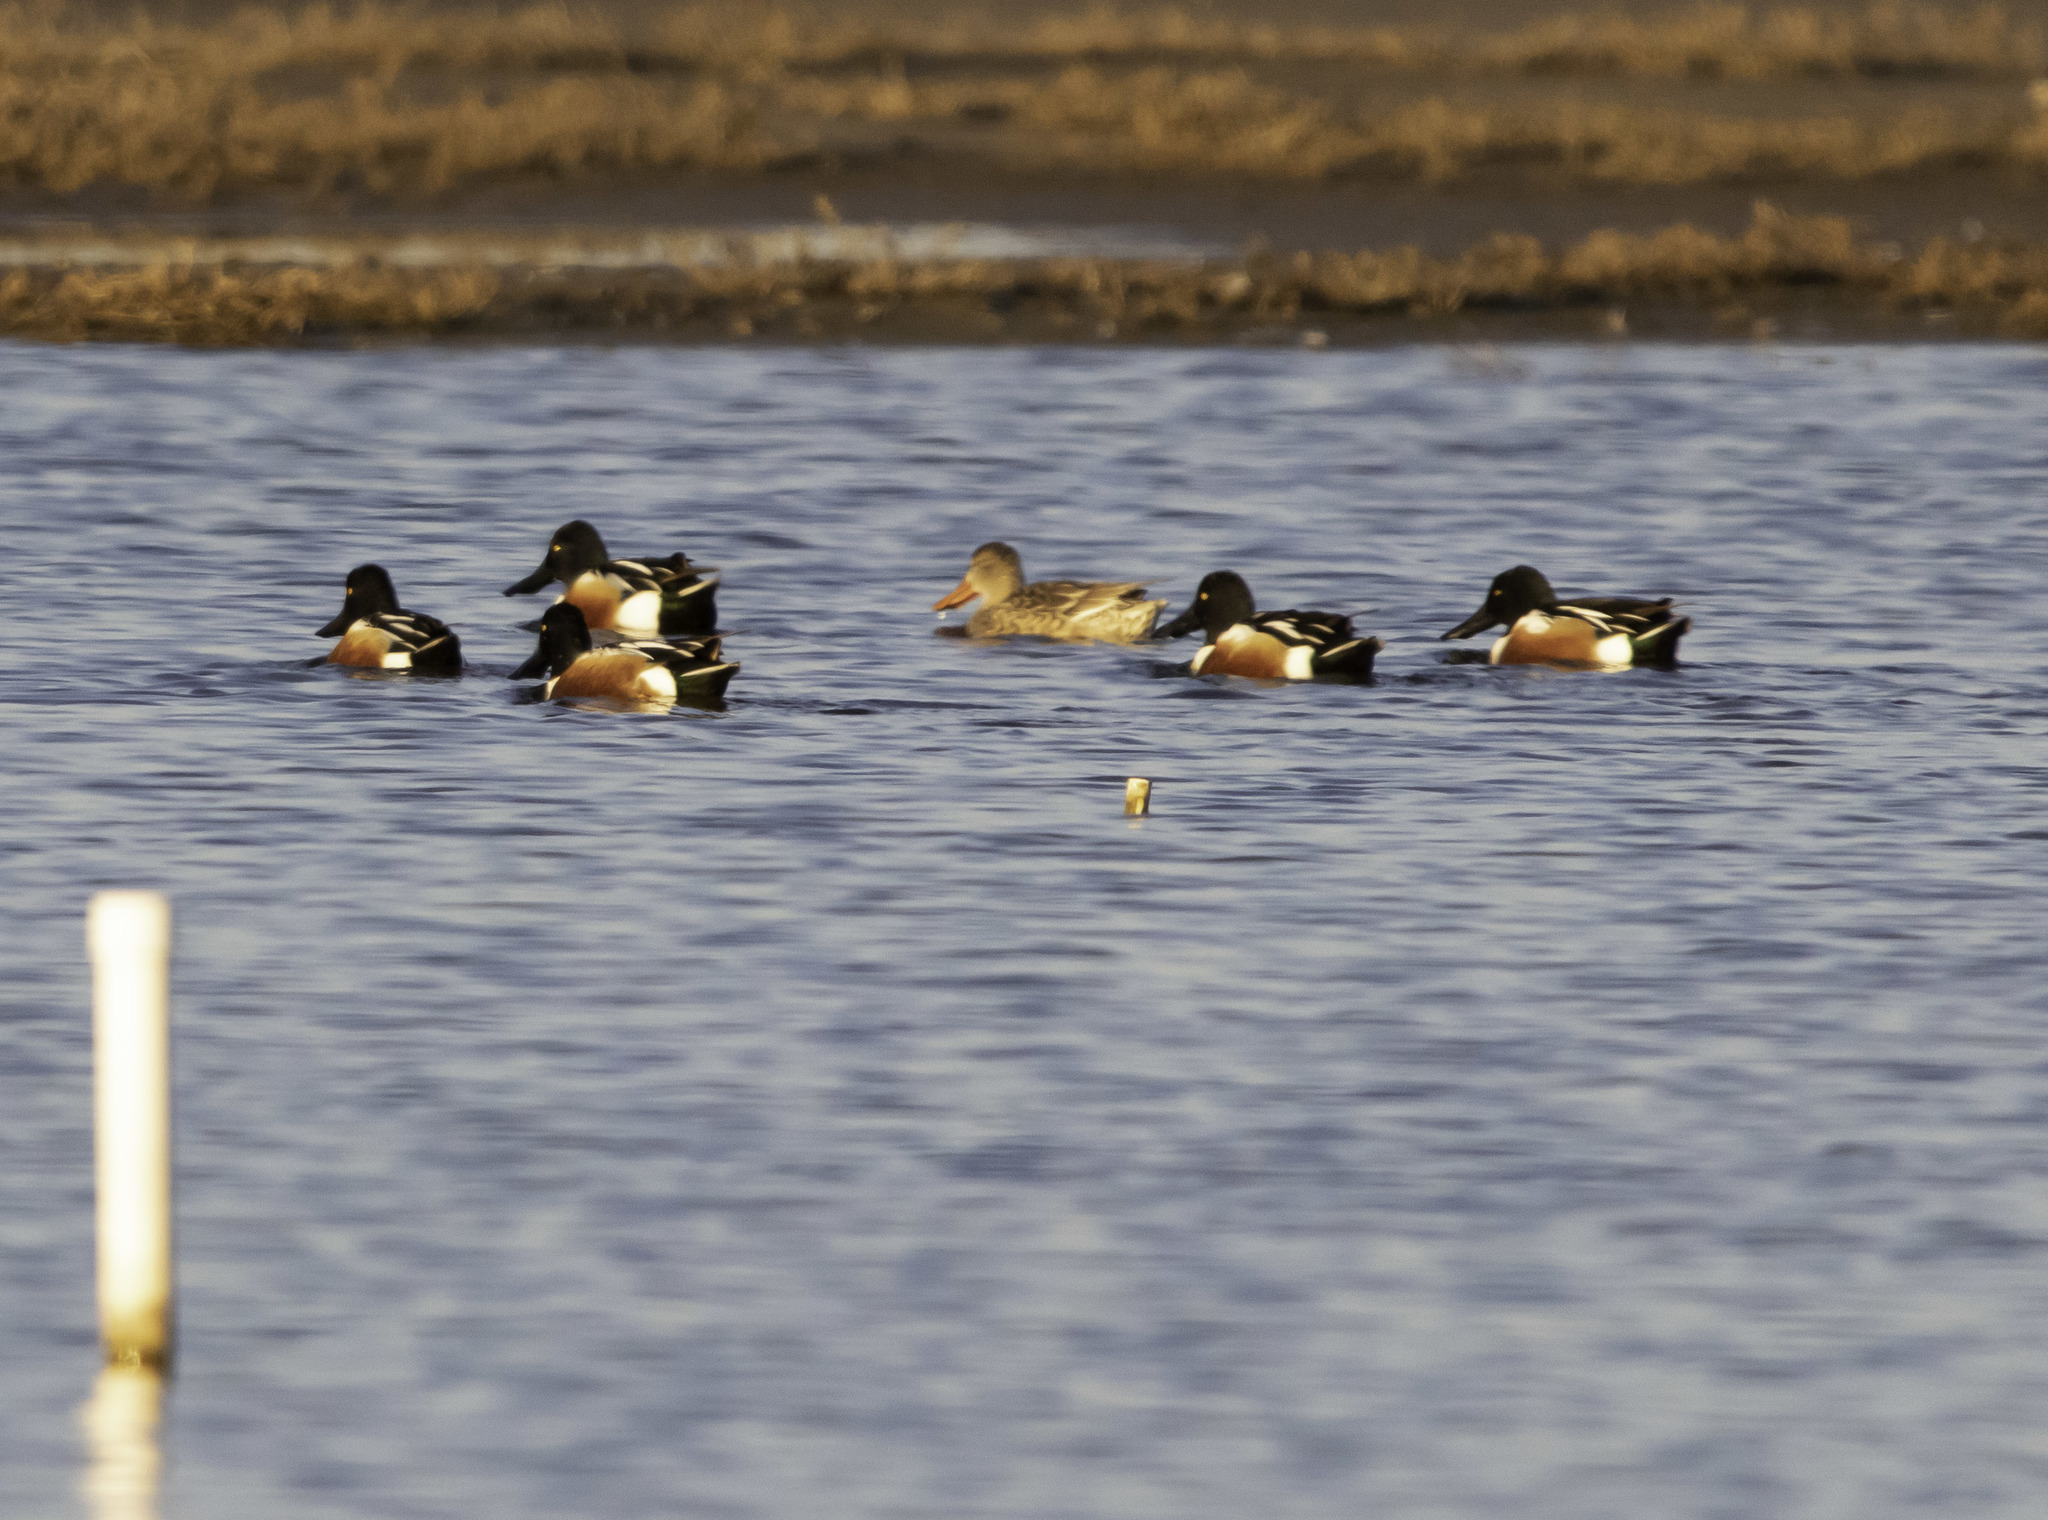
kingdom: Animalia
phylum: Chordata
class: Aves
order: Anseriformes
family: Anatidae
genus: Spatula
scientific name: Spatula clypeata
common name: Northern shoveler
